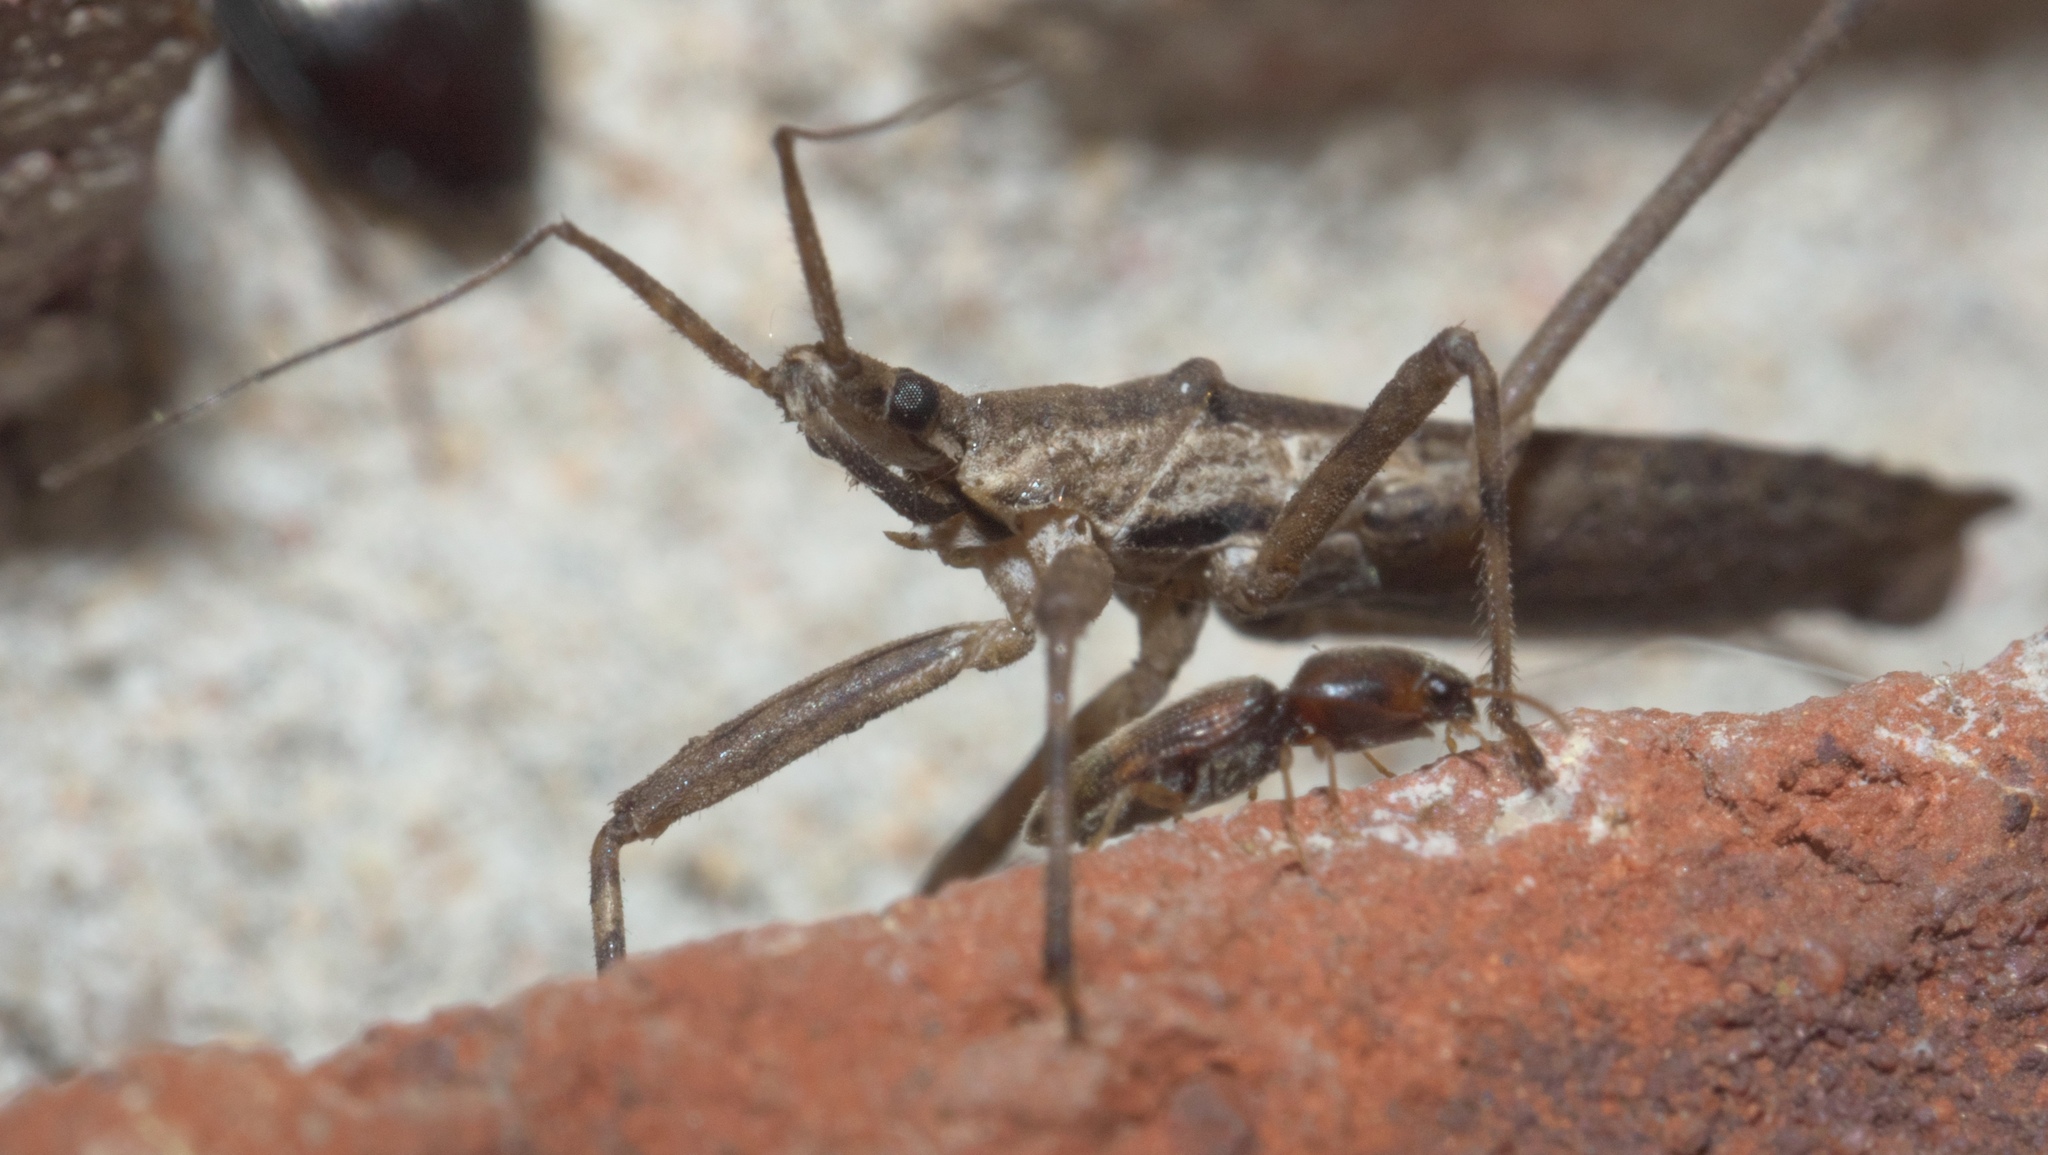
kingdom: Animalia
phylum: Arthropoda
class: Insecta
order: Hemiptera
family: Reduviidae
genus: Pygolampis
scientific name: Pygolampis pectoralis
